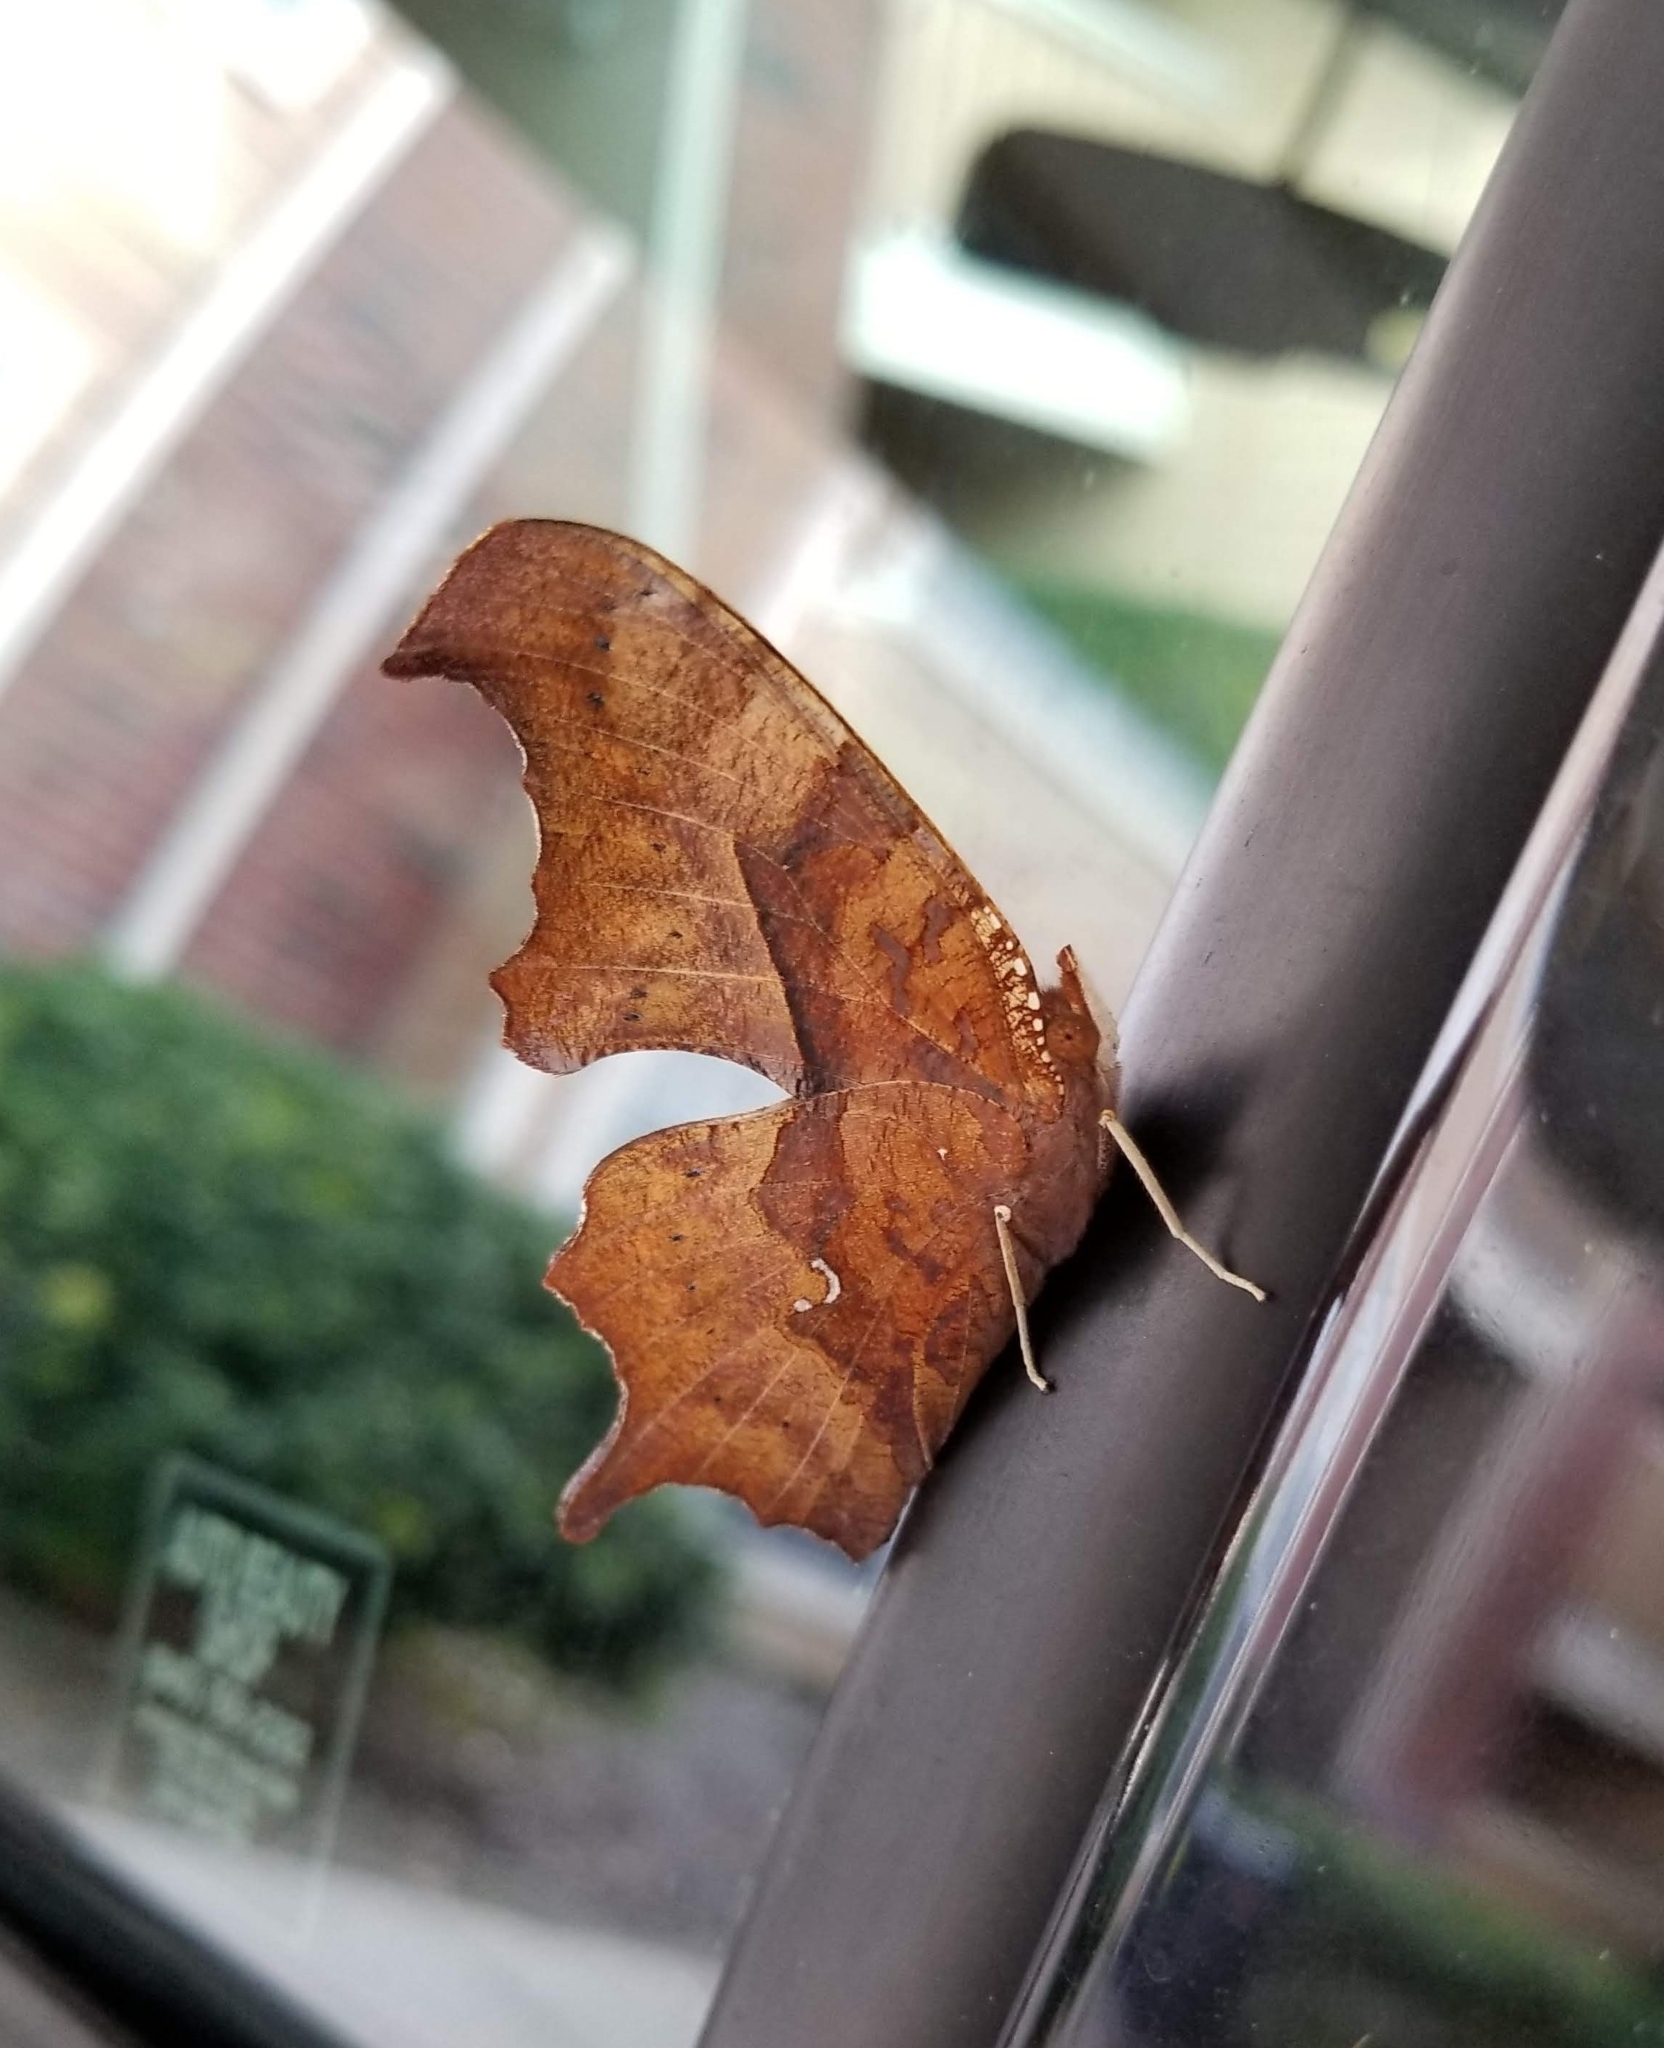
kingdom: Animalia
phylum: Arthropoda
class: Insecta
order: Lepidoptera
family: Nymphalidae
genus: Polygonia
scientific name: Polygonia interrogationis
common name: Question mark
